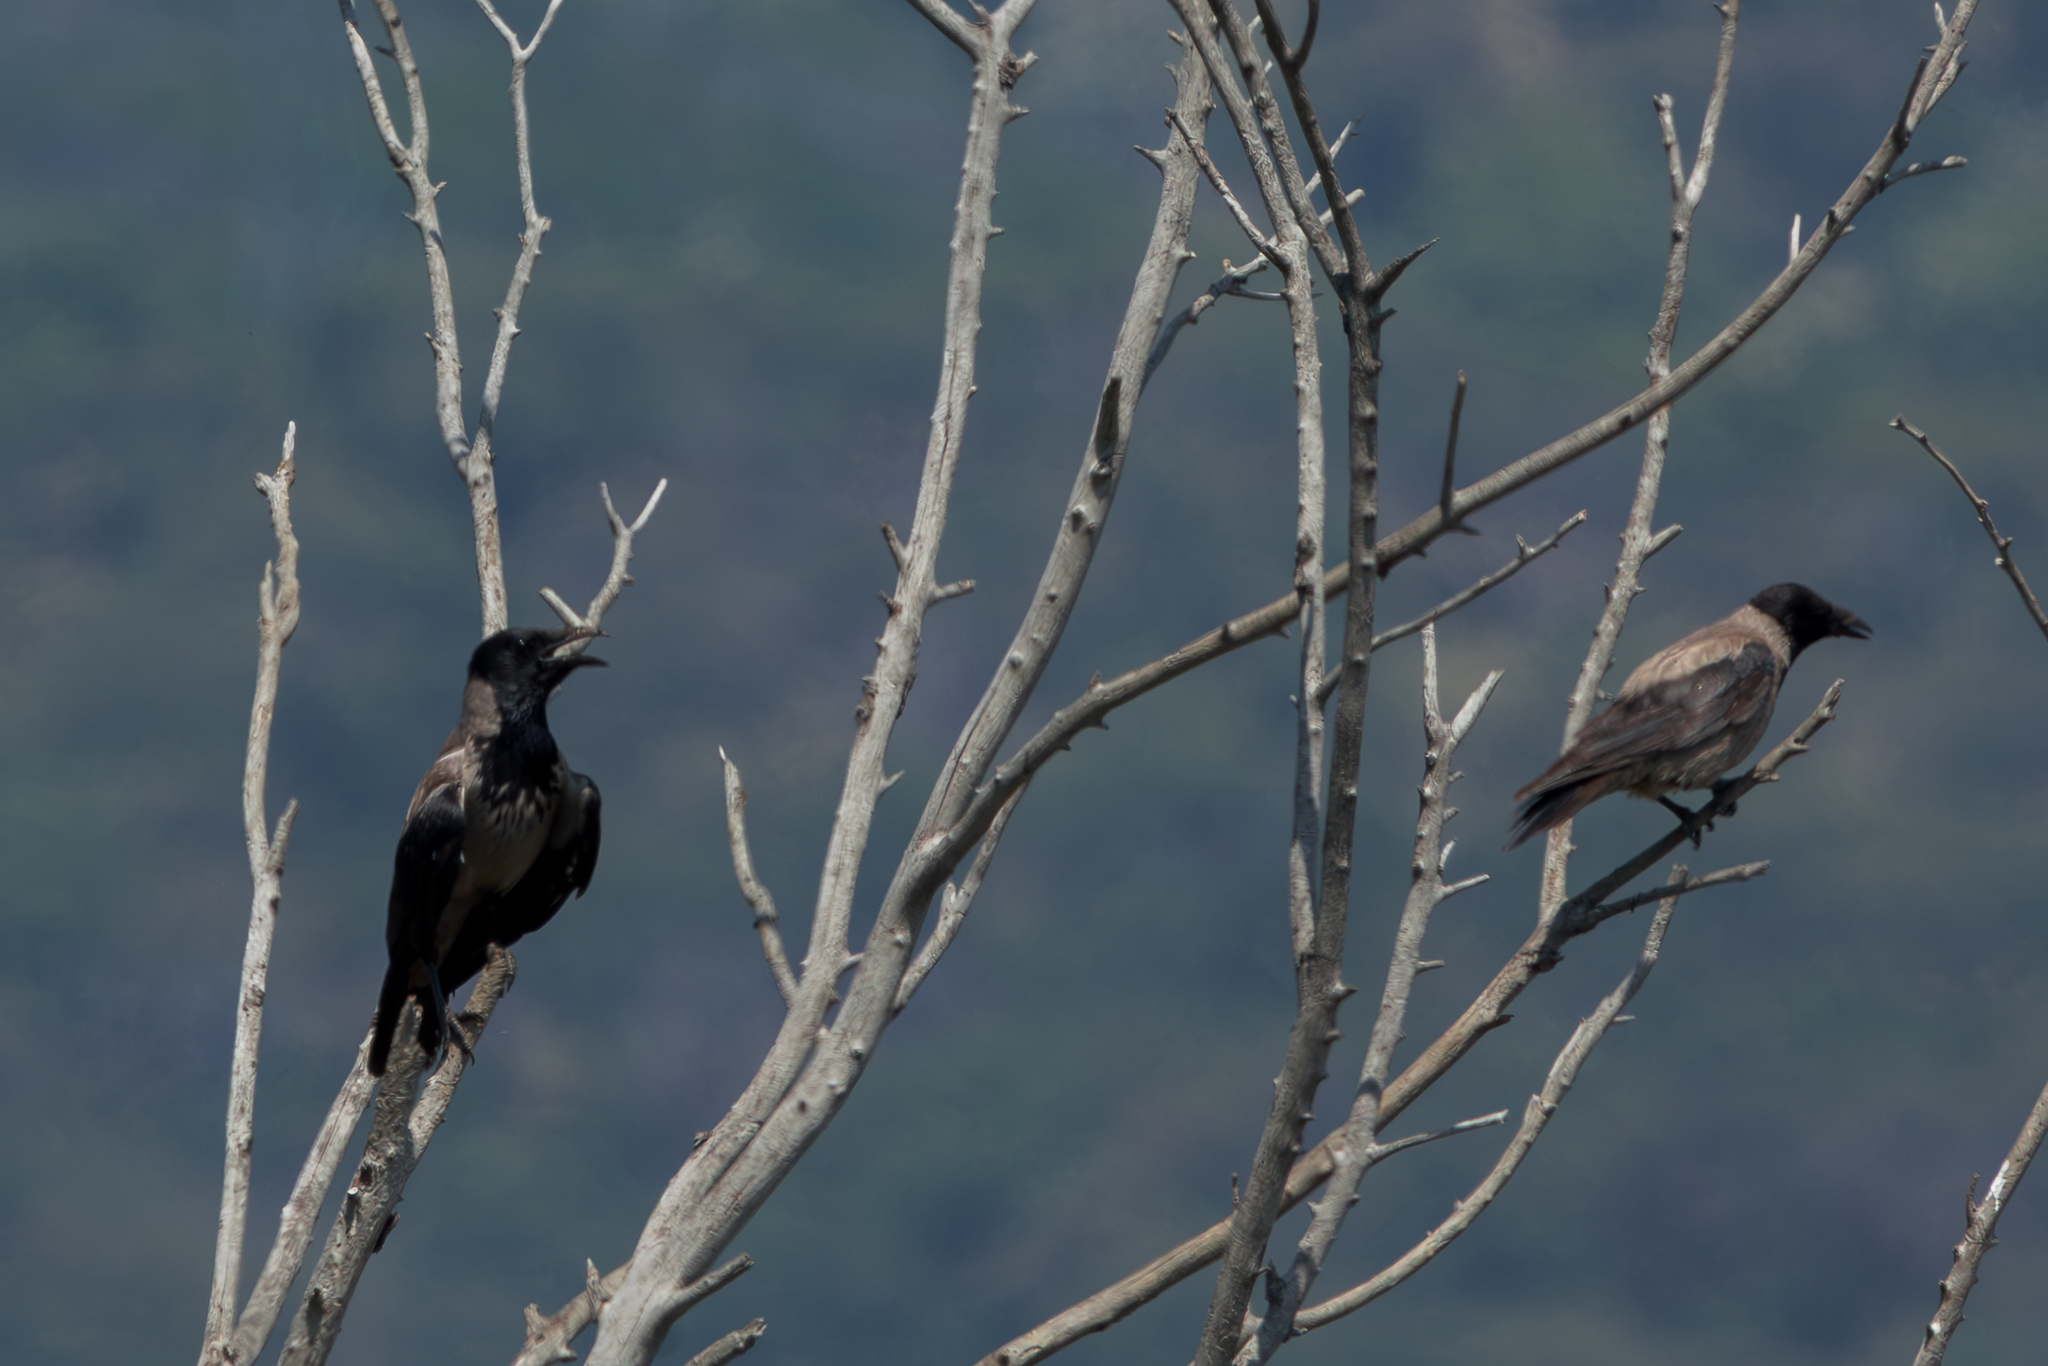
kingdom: Animalia
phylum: Chordata
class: Aves
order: Passeriformes
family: Corvidae
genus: Corvus
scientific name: Corvus cornix
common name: Hooded crow
